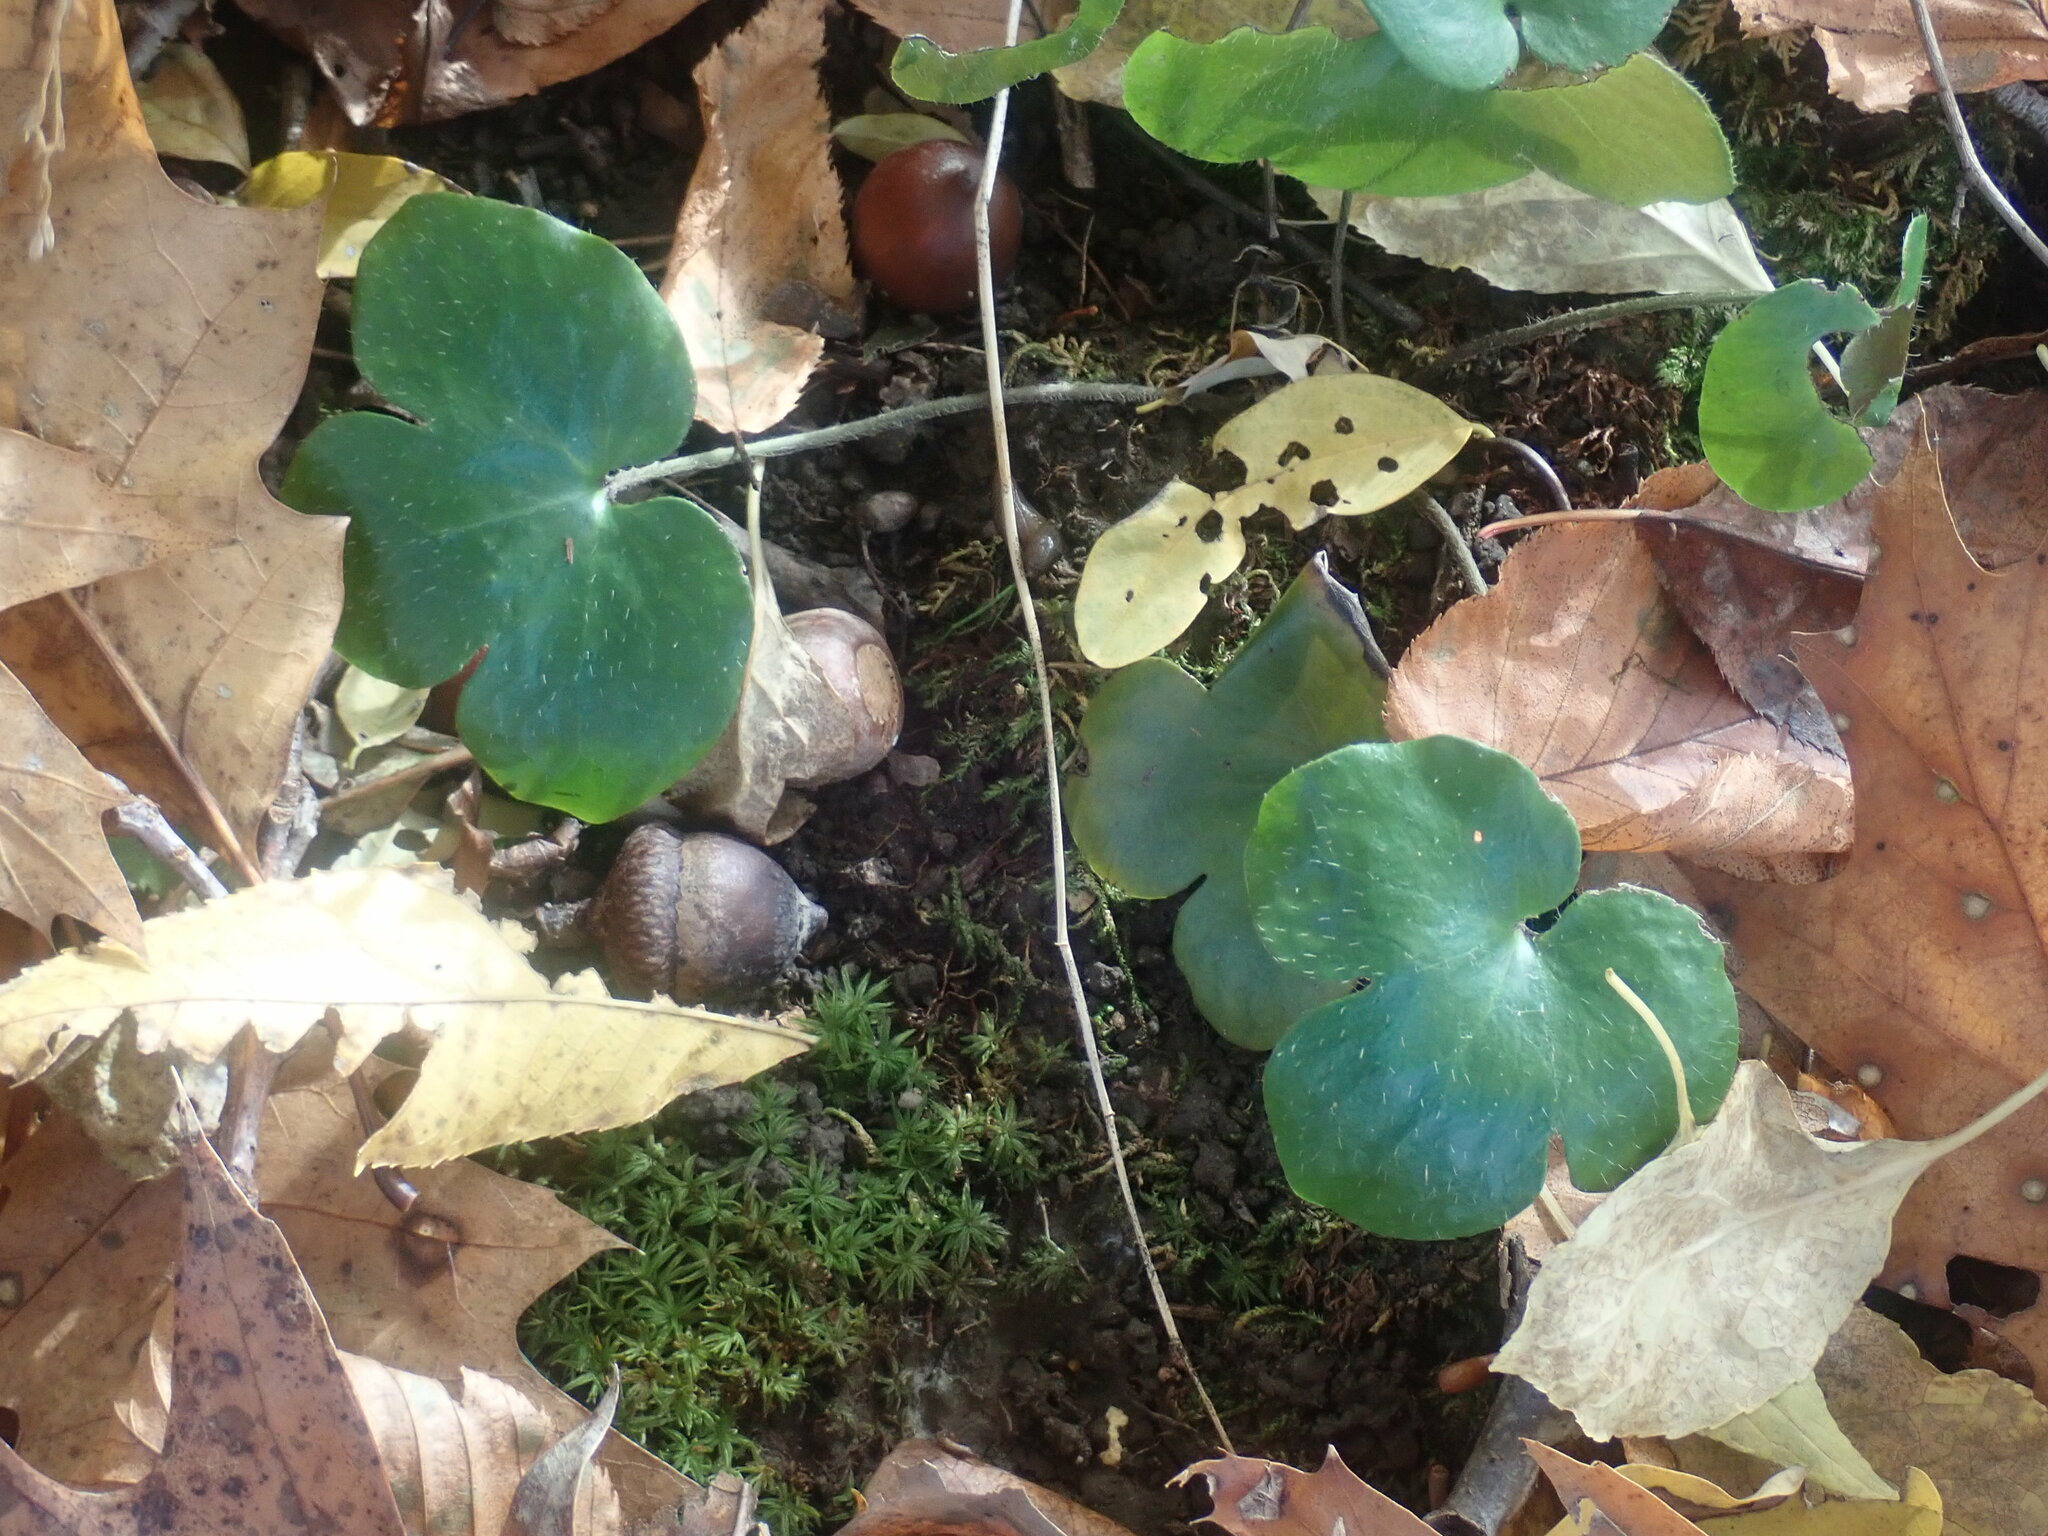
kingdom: Plantae
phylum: Tracheophyta
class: Magnoliopsida
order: Ranunculales
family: Ranunculaceae
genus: Hepatica
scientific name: Hepatica americana
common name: American hepatica
